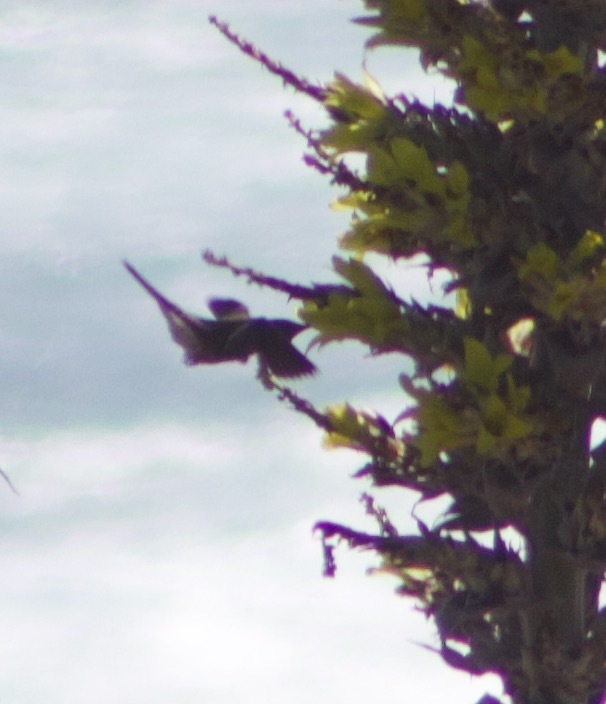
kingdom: Animalia
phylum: Chordata
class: Aves
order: Apodiformes
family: Trochilidae
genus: Patagona
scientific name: Patagona gigas
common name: Giant hummingbird
